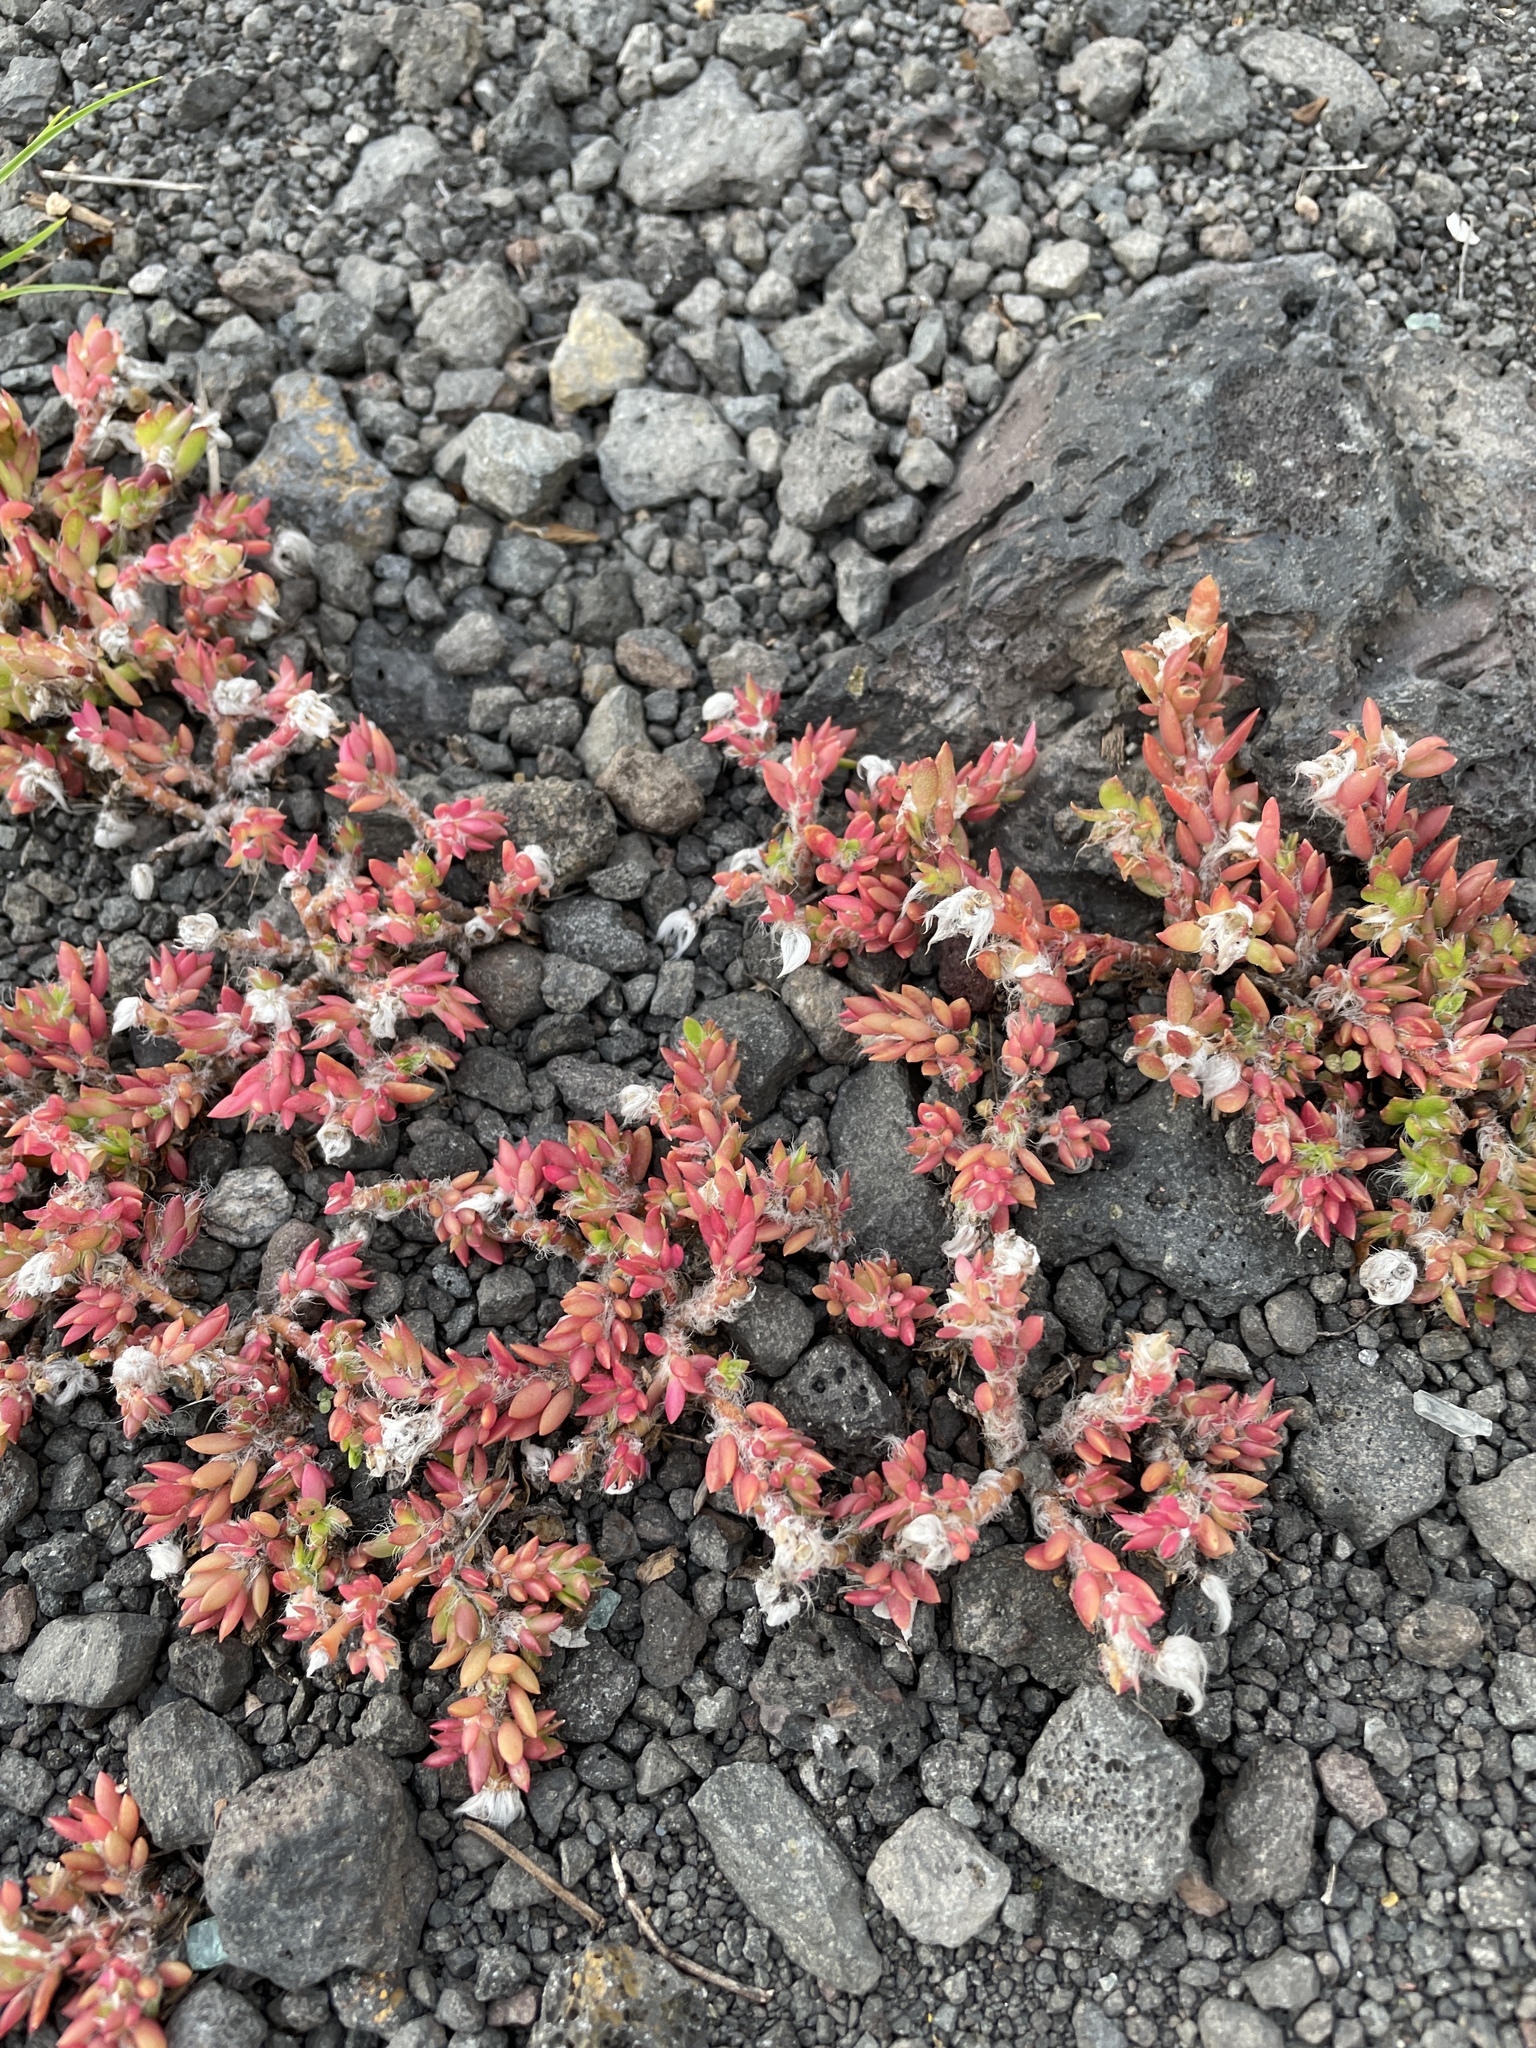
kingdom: Plantae
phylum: Tracheophyta
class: Magnoliopsida
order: Caryophyllales
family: Portulacaceae
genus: Portulaca
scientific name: Portulaca pilosa
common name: Kiss me quick
